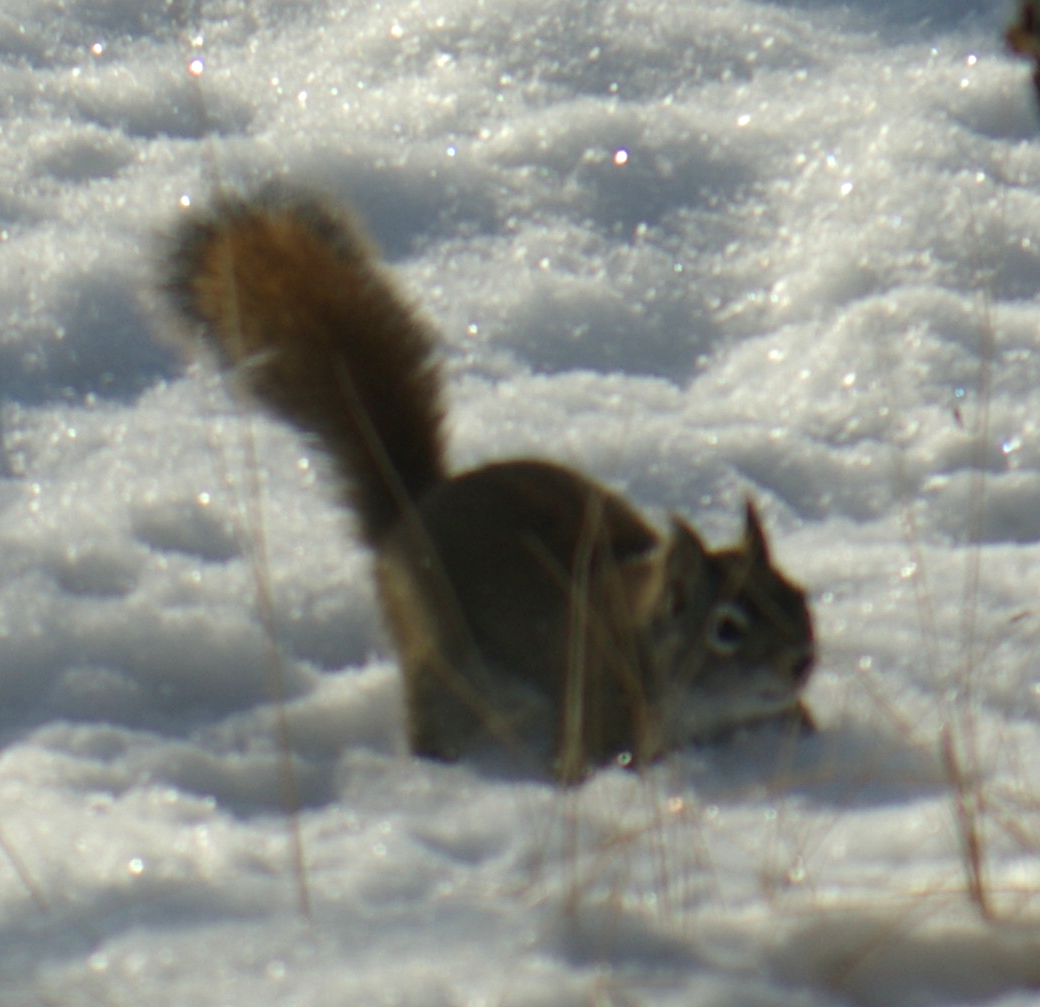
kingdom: Animalia
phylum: Chordata
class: Mammalia
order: Rodentia
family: Sciuridae
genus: Tamiasciurus
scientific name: Tamiasciurus hudsonicus
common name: Red squirrel
